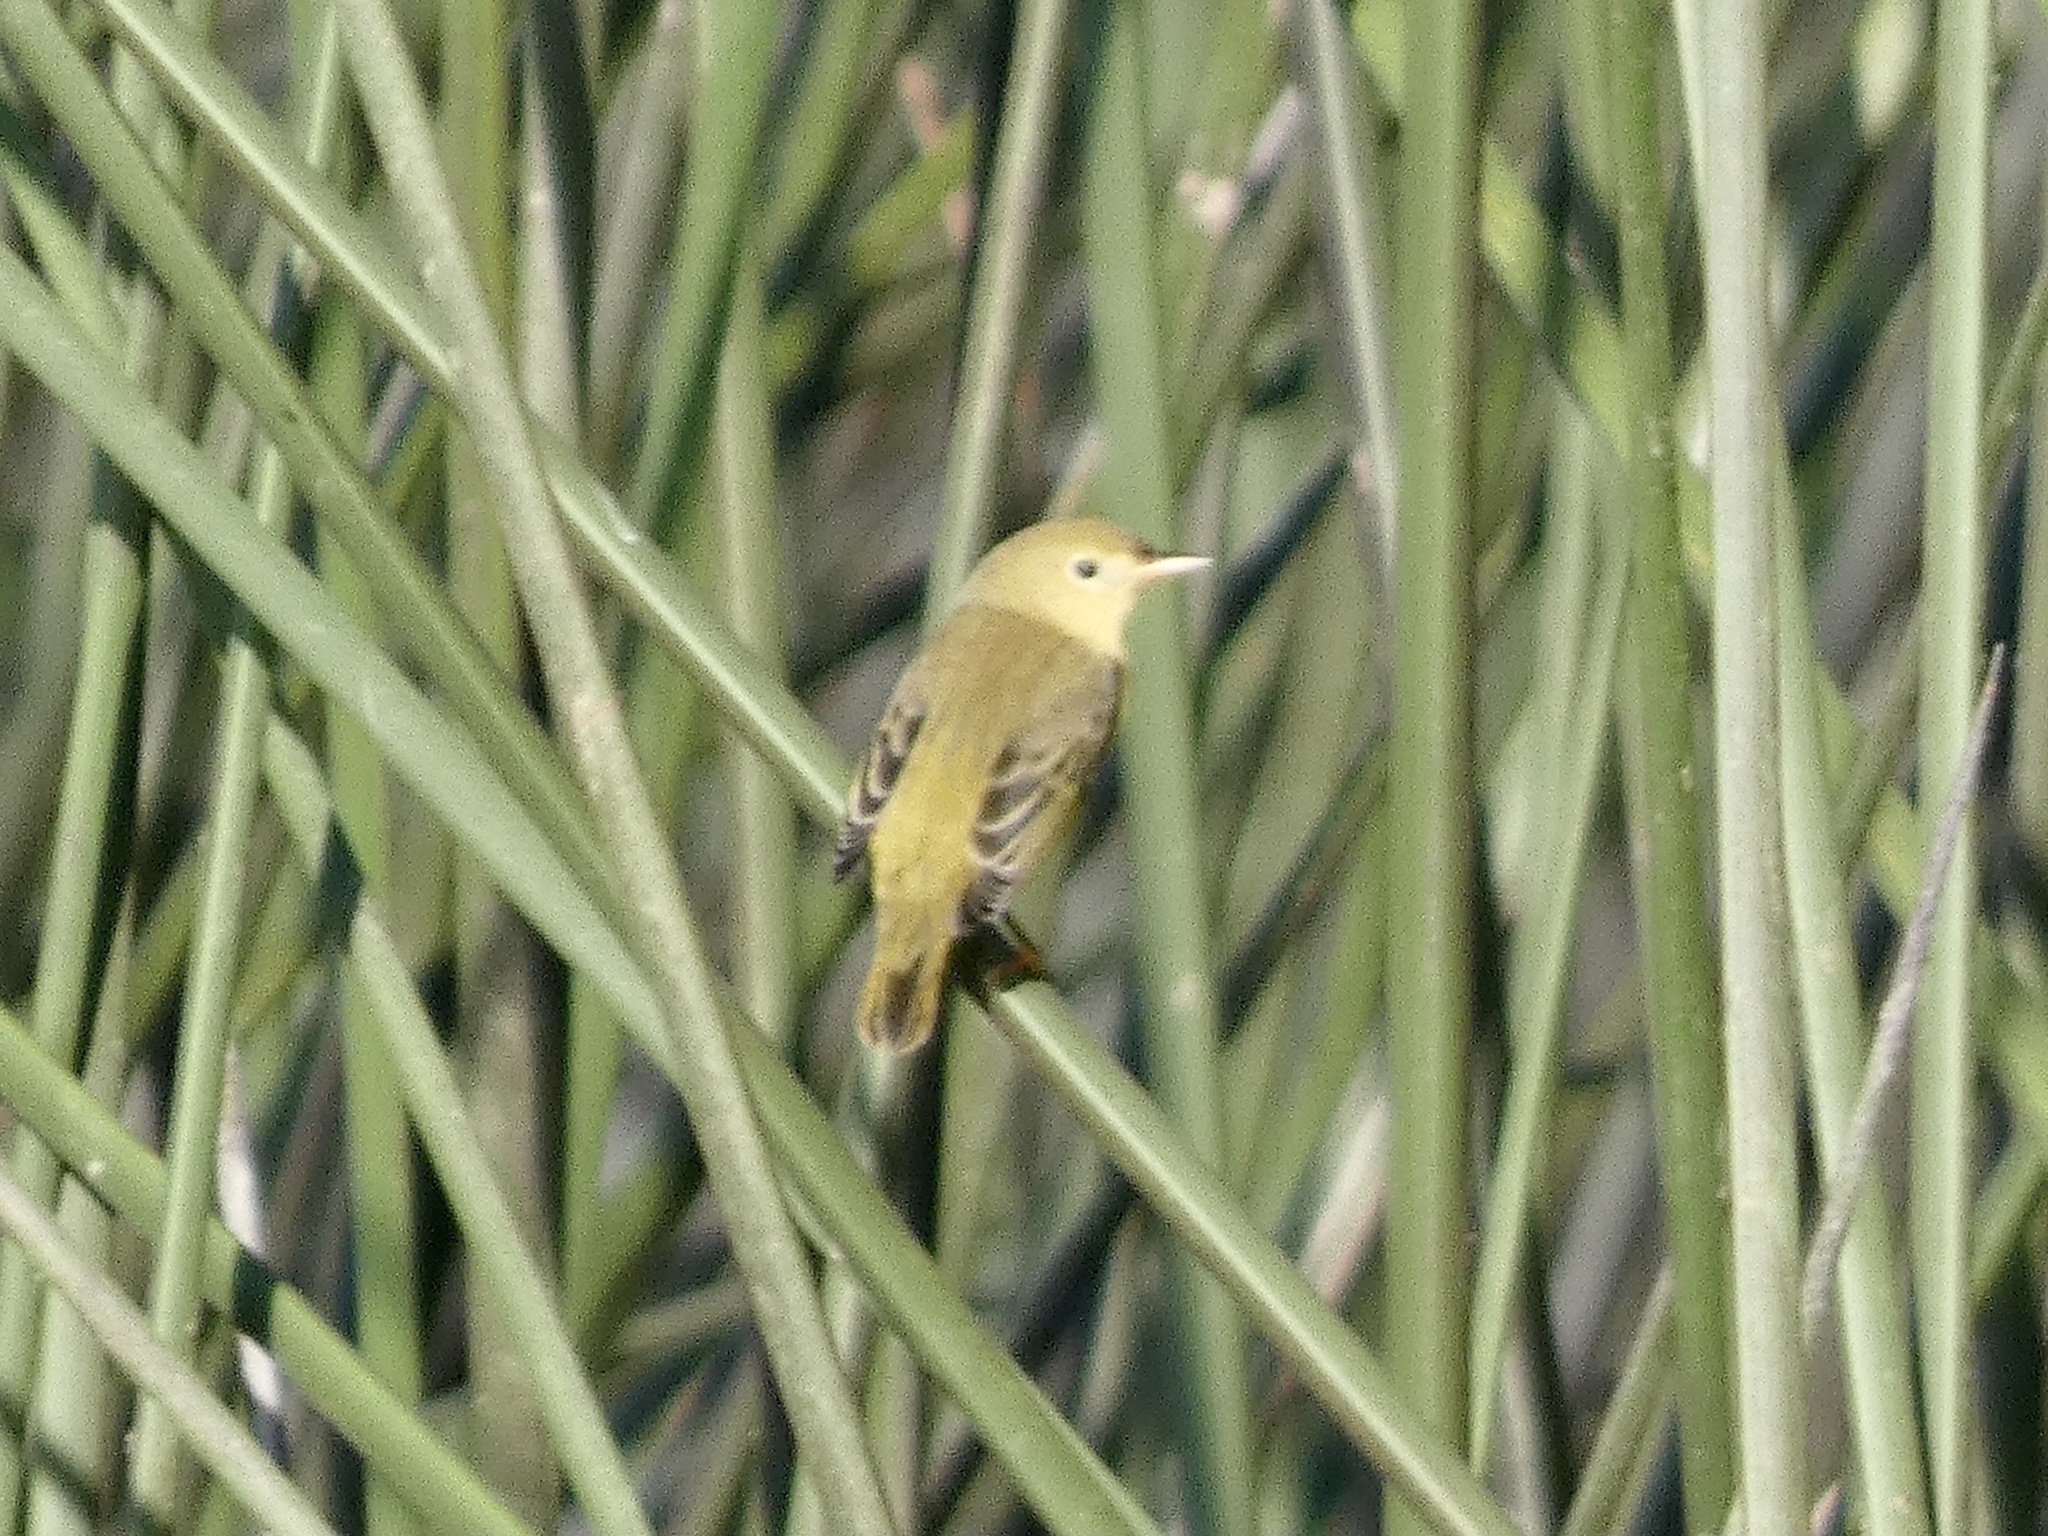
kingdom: Animalia
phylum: Chordata
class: Aves
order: Passeriformes
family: Parulidae
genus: Setophaga
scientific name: Setophaga petechia
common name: Yellow warbler
